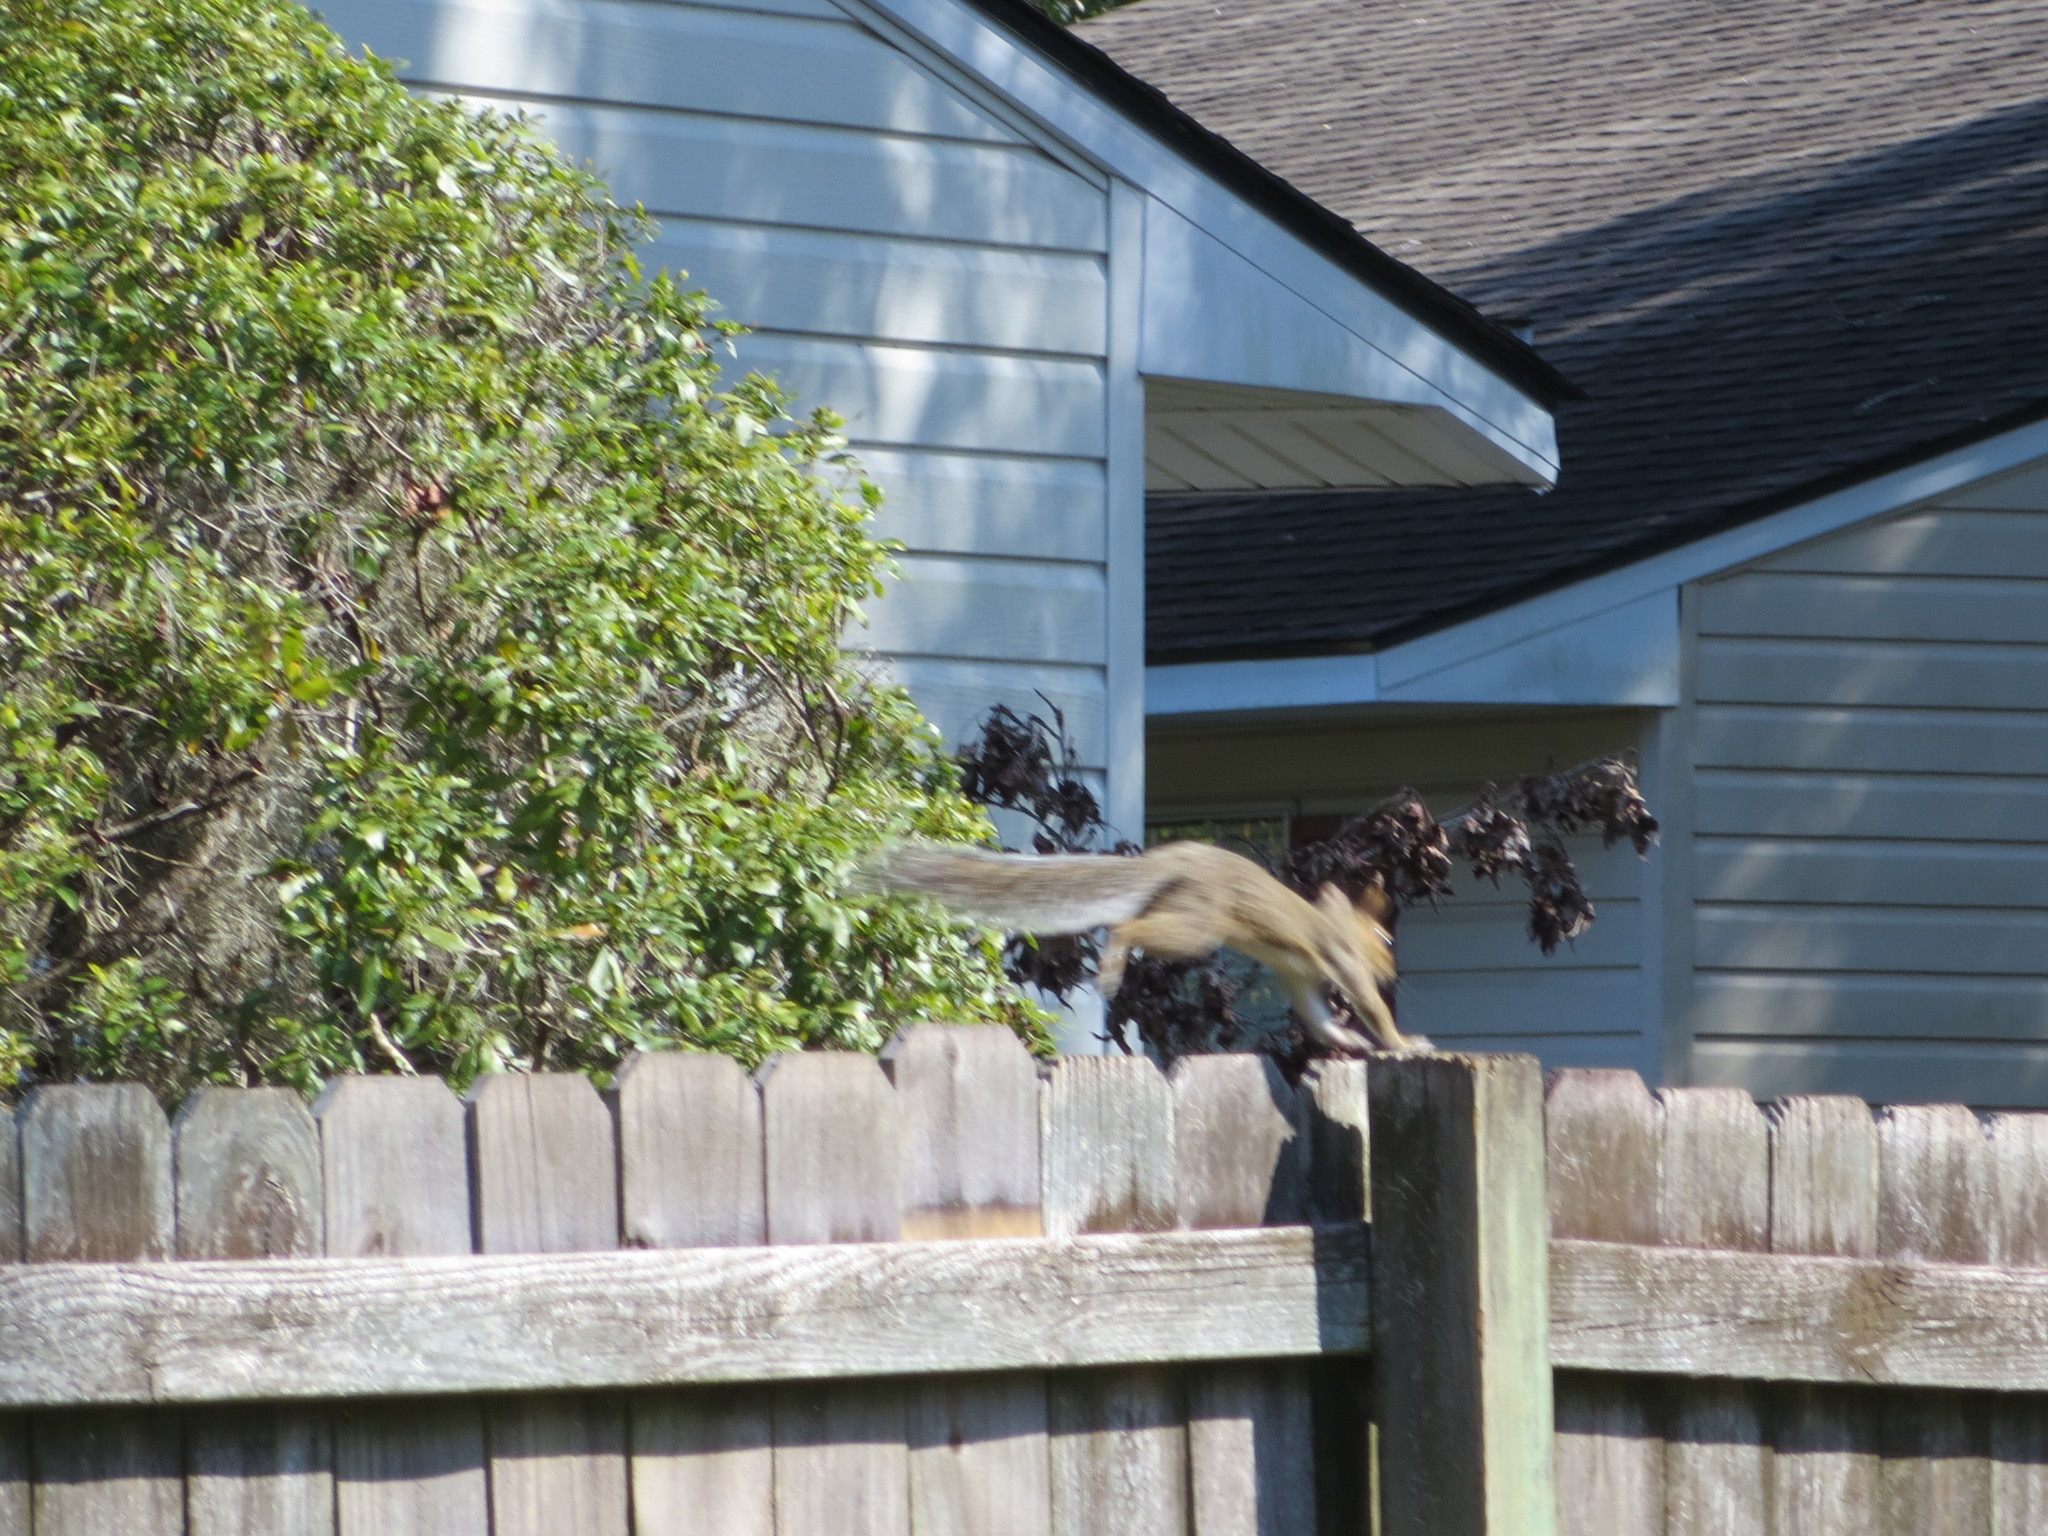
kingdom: Animalia
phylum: Chordata
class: Mammalia
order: Rodentia
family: Sciuridae
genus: Sciurus
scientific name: Sciurus carolinensis
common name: Eastern gray squirrel
